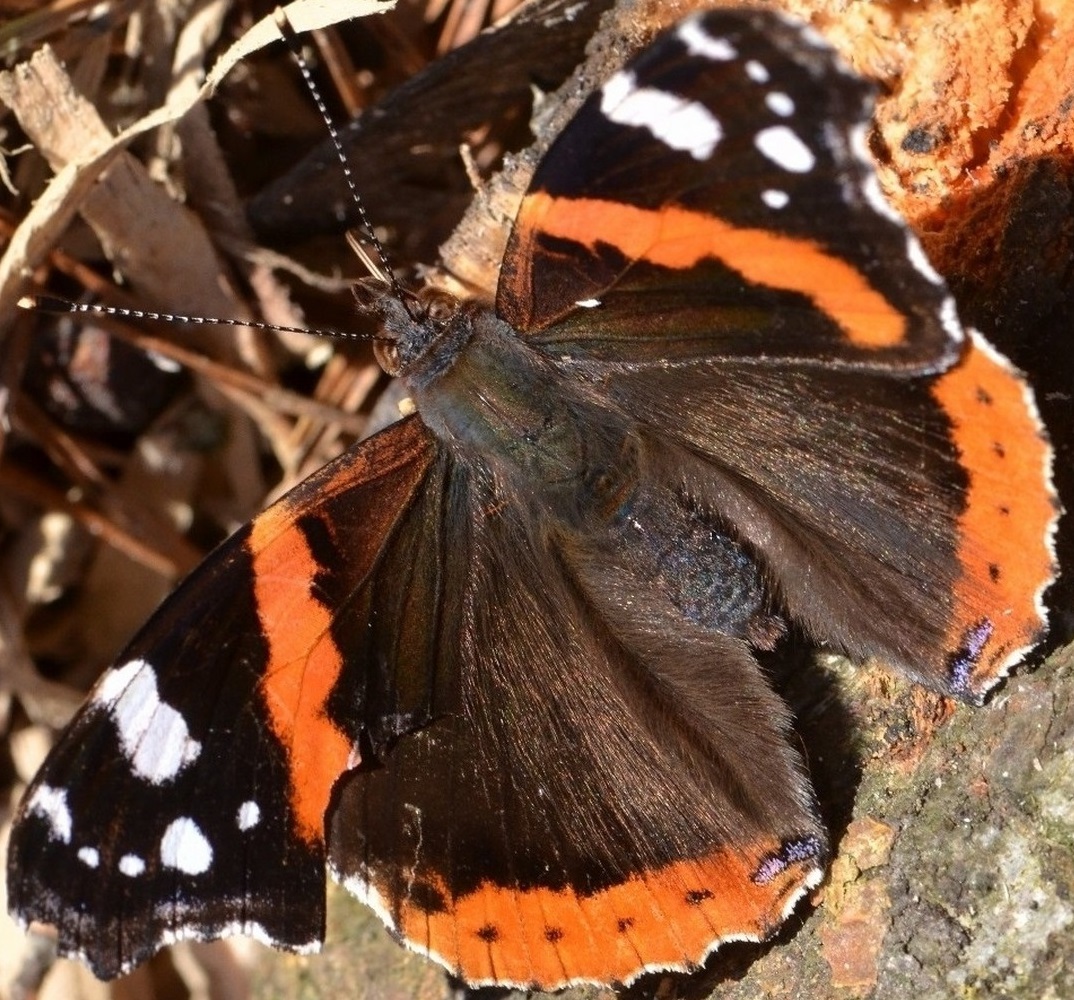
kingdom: Animalia
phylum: Arthropoda
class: Insecta
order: Lepidoptera
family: Nymphalidae
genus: Vanessa
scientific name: Vanessa atalanta
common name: Red admiral
